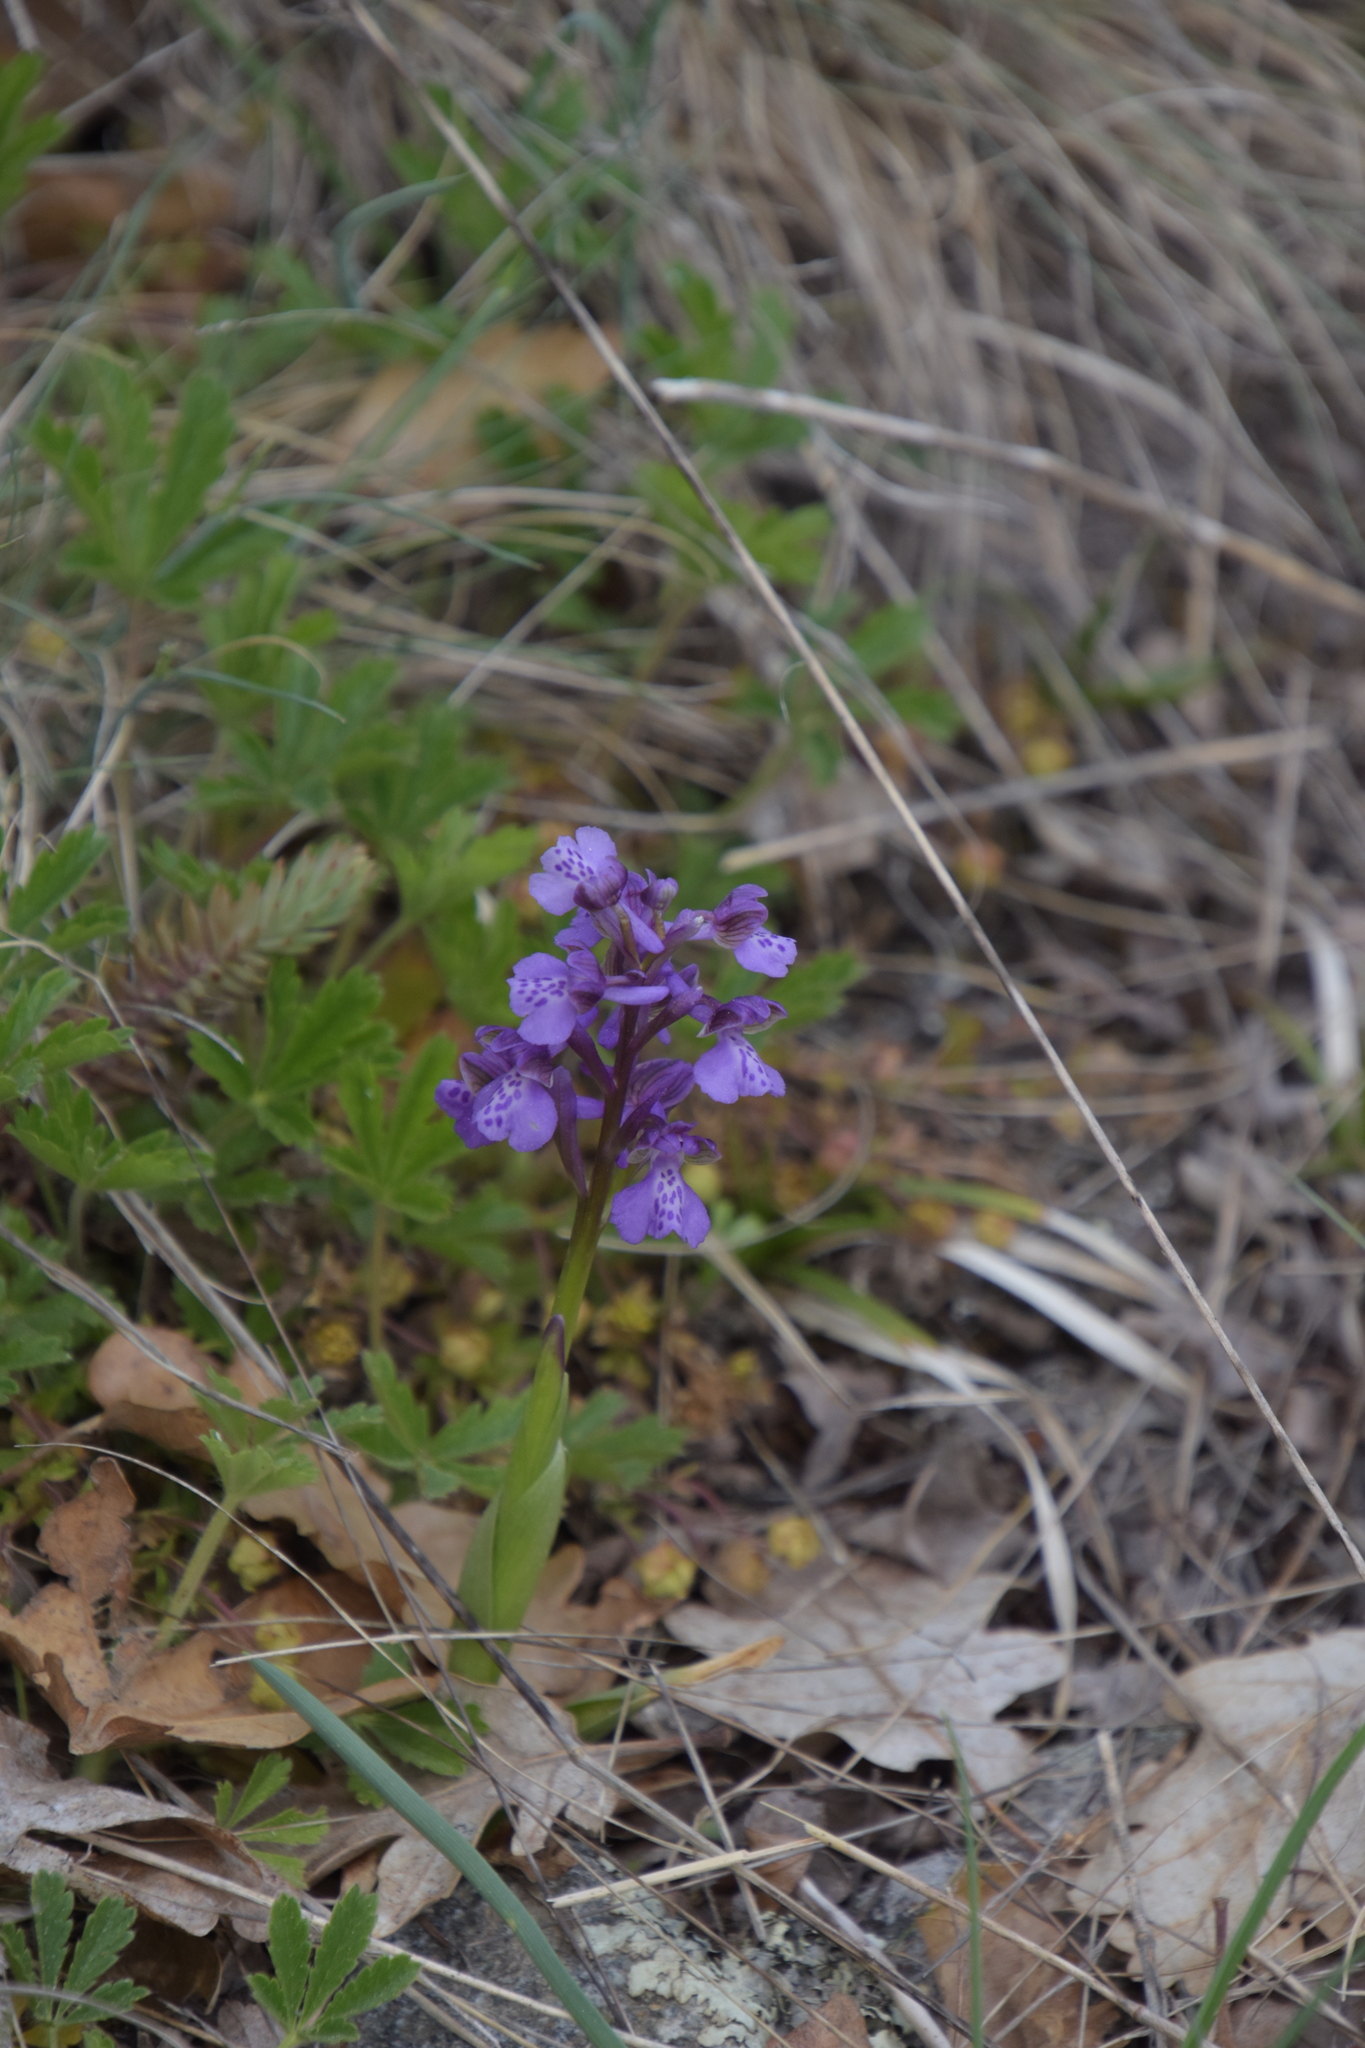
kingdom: Plantae
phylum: Tracheophyta
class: Liliopsida
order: Asparagales
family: Orchidaceae
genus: Anacamptis
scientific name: Anacamptis morio
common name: Green-winged orchid
